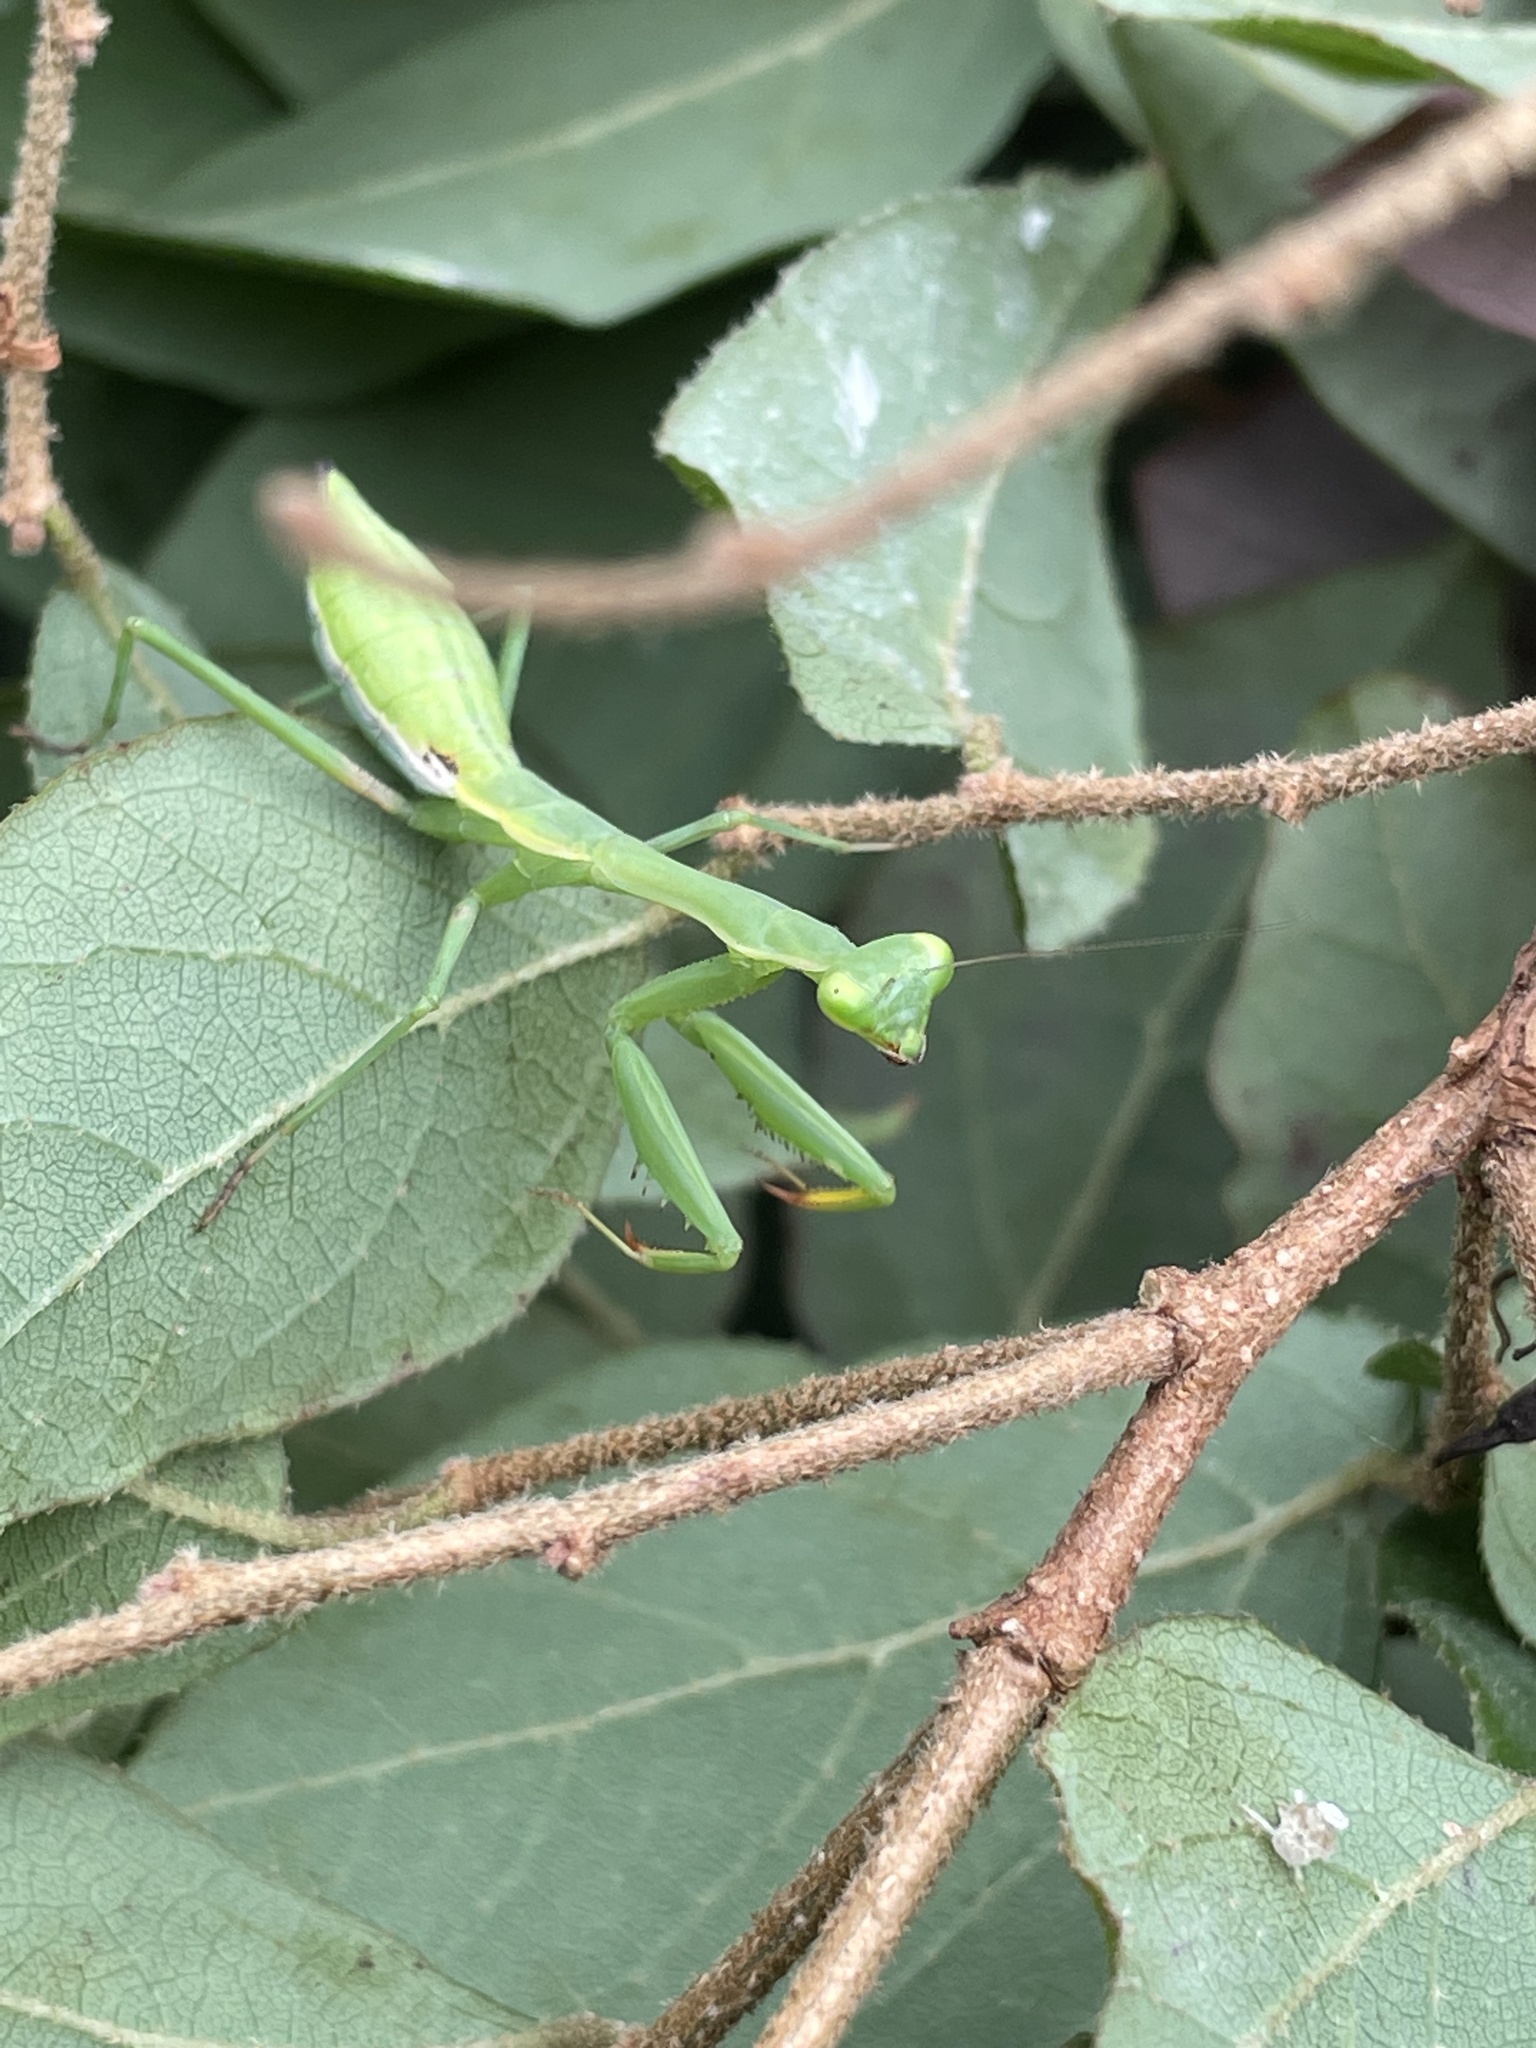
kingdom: Animalia
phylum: Arthropoda
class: Insecta
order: Mantodea
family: Miomantidae
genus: Miomantis
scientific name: Miomantis caffra
